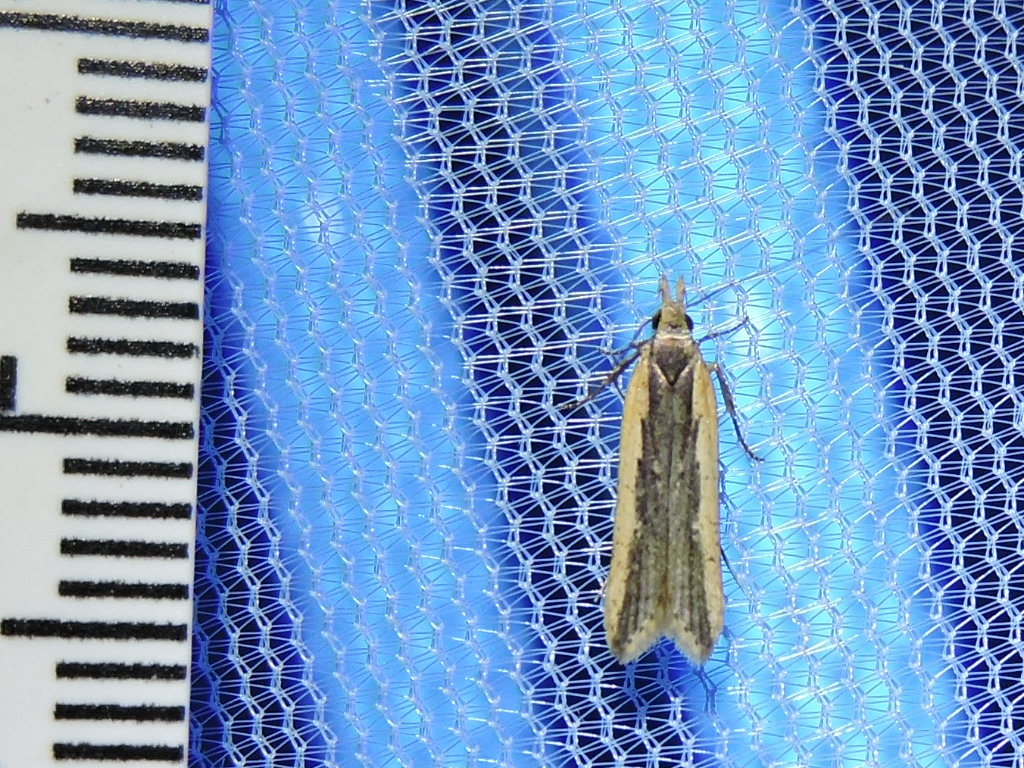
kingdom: Animalia
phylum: Arthropoda
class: Insecta
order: Lepidoptera
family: Gelechiidae
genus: Dichomeris
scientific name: Dichomeris ligulella
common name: Moth
